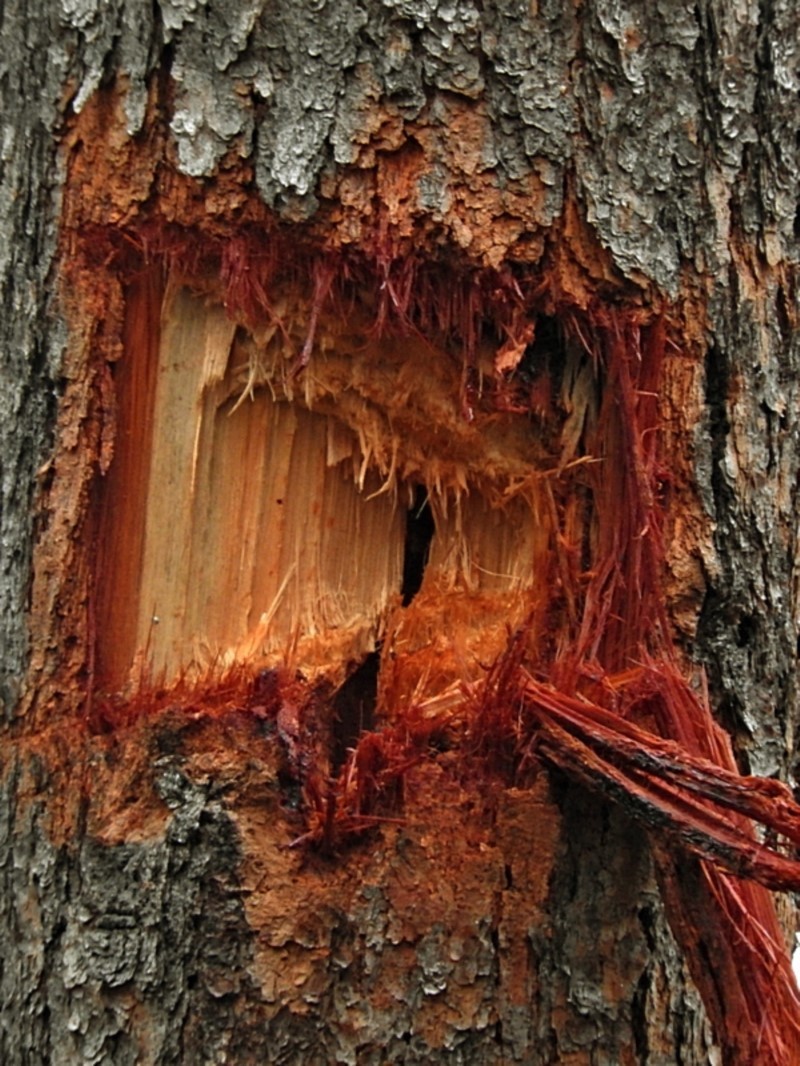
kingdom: Animalia
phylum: Chordata
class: Aves
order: Psittaciformes
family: Cacatuidae
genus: Zanda
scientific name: Zanda funerea
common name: Yellow-tailed black-cockatoo
